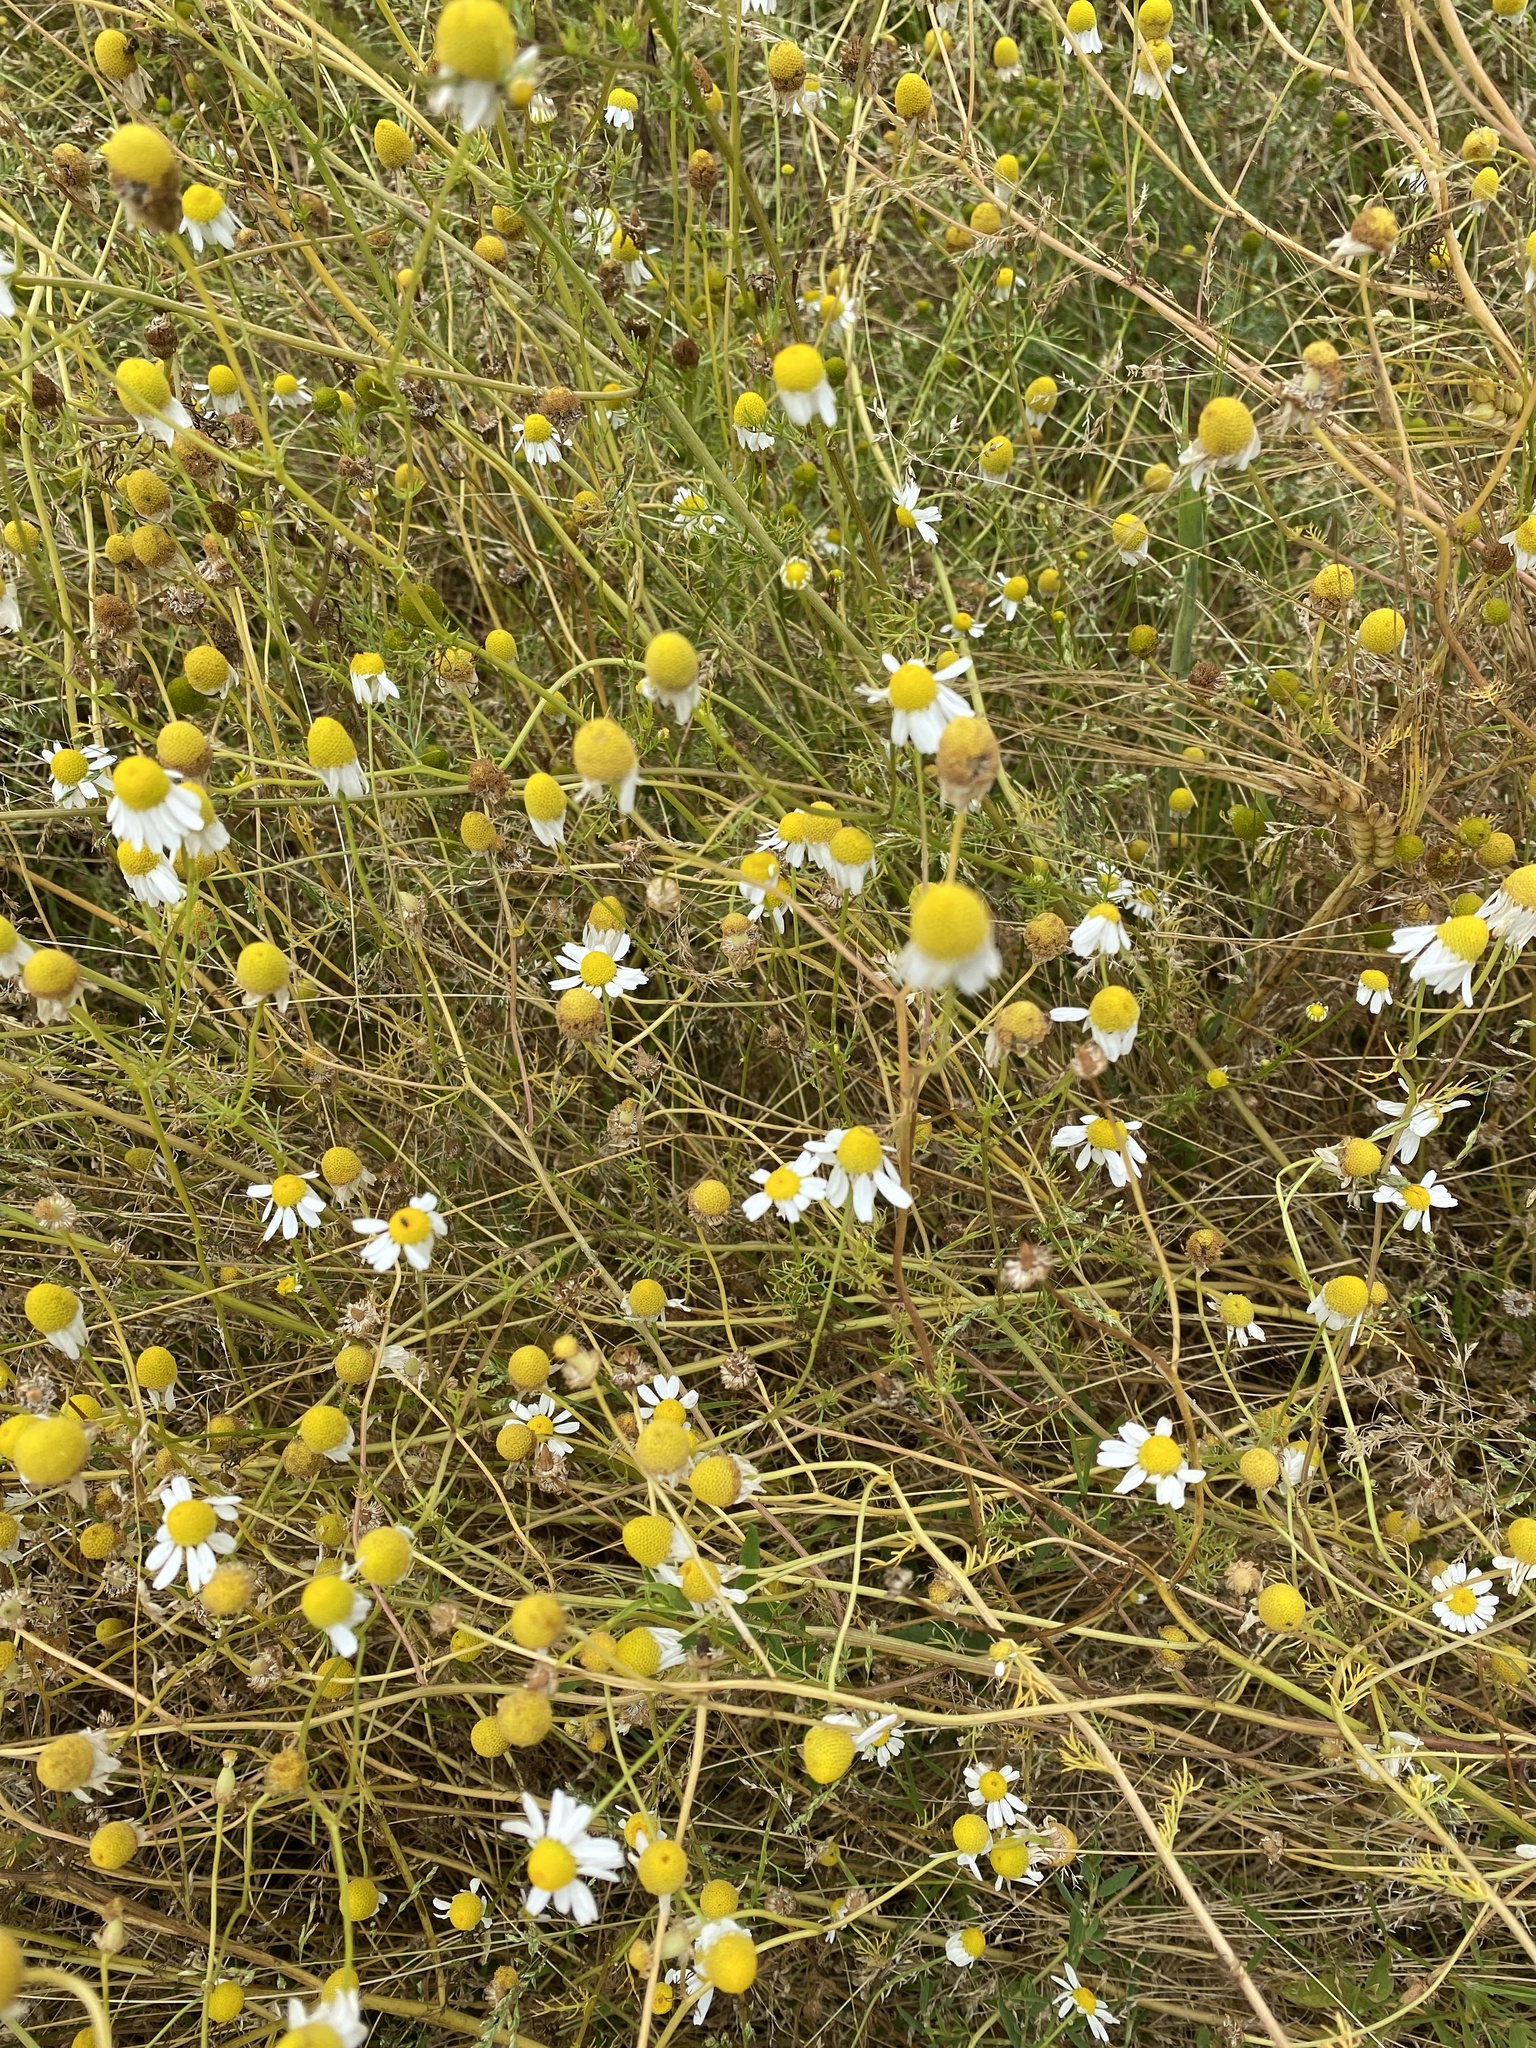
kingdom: Plantae
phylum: Tracheophyta
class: Magnoliopsida
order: Asterales
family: Asteraceae
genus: Matricaria
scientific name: Matricaria chamomilla
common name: Scented mayweed
